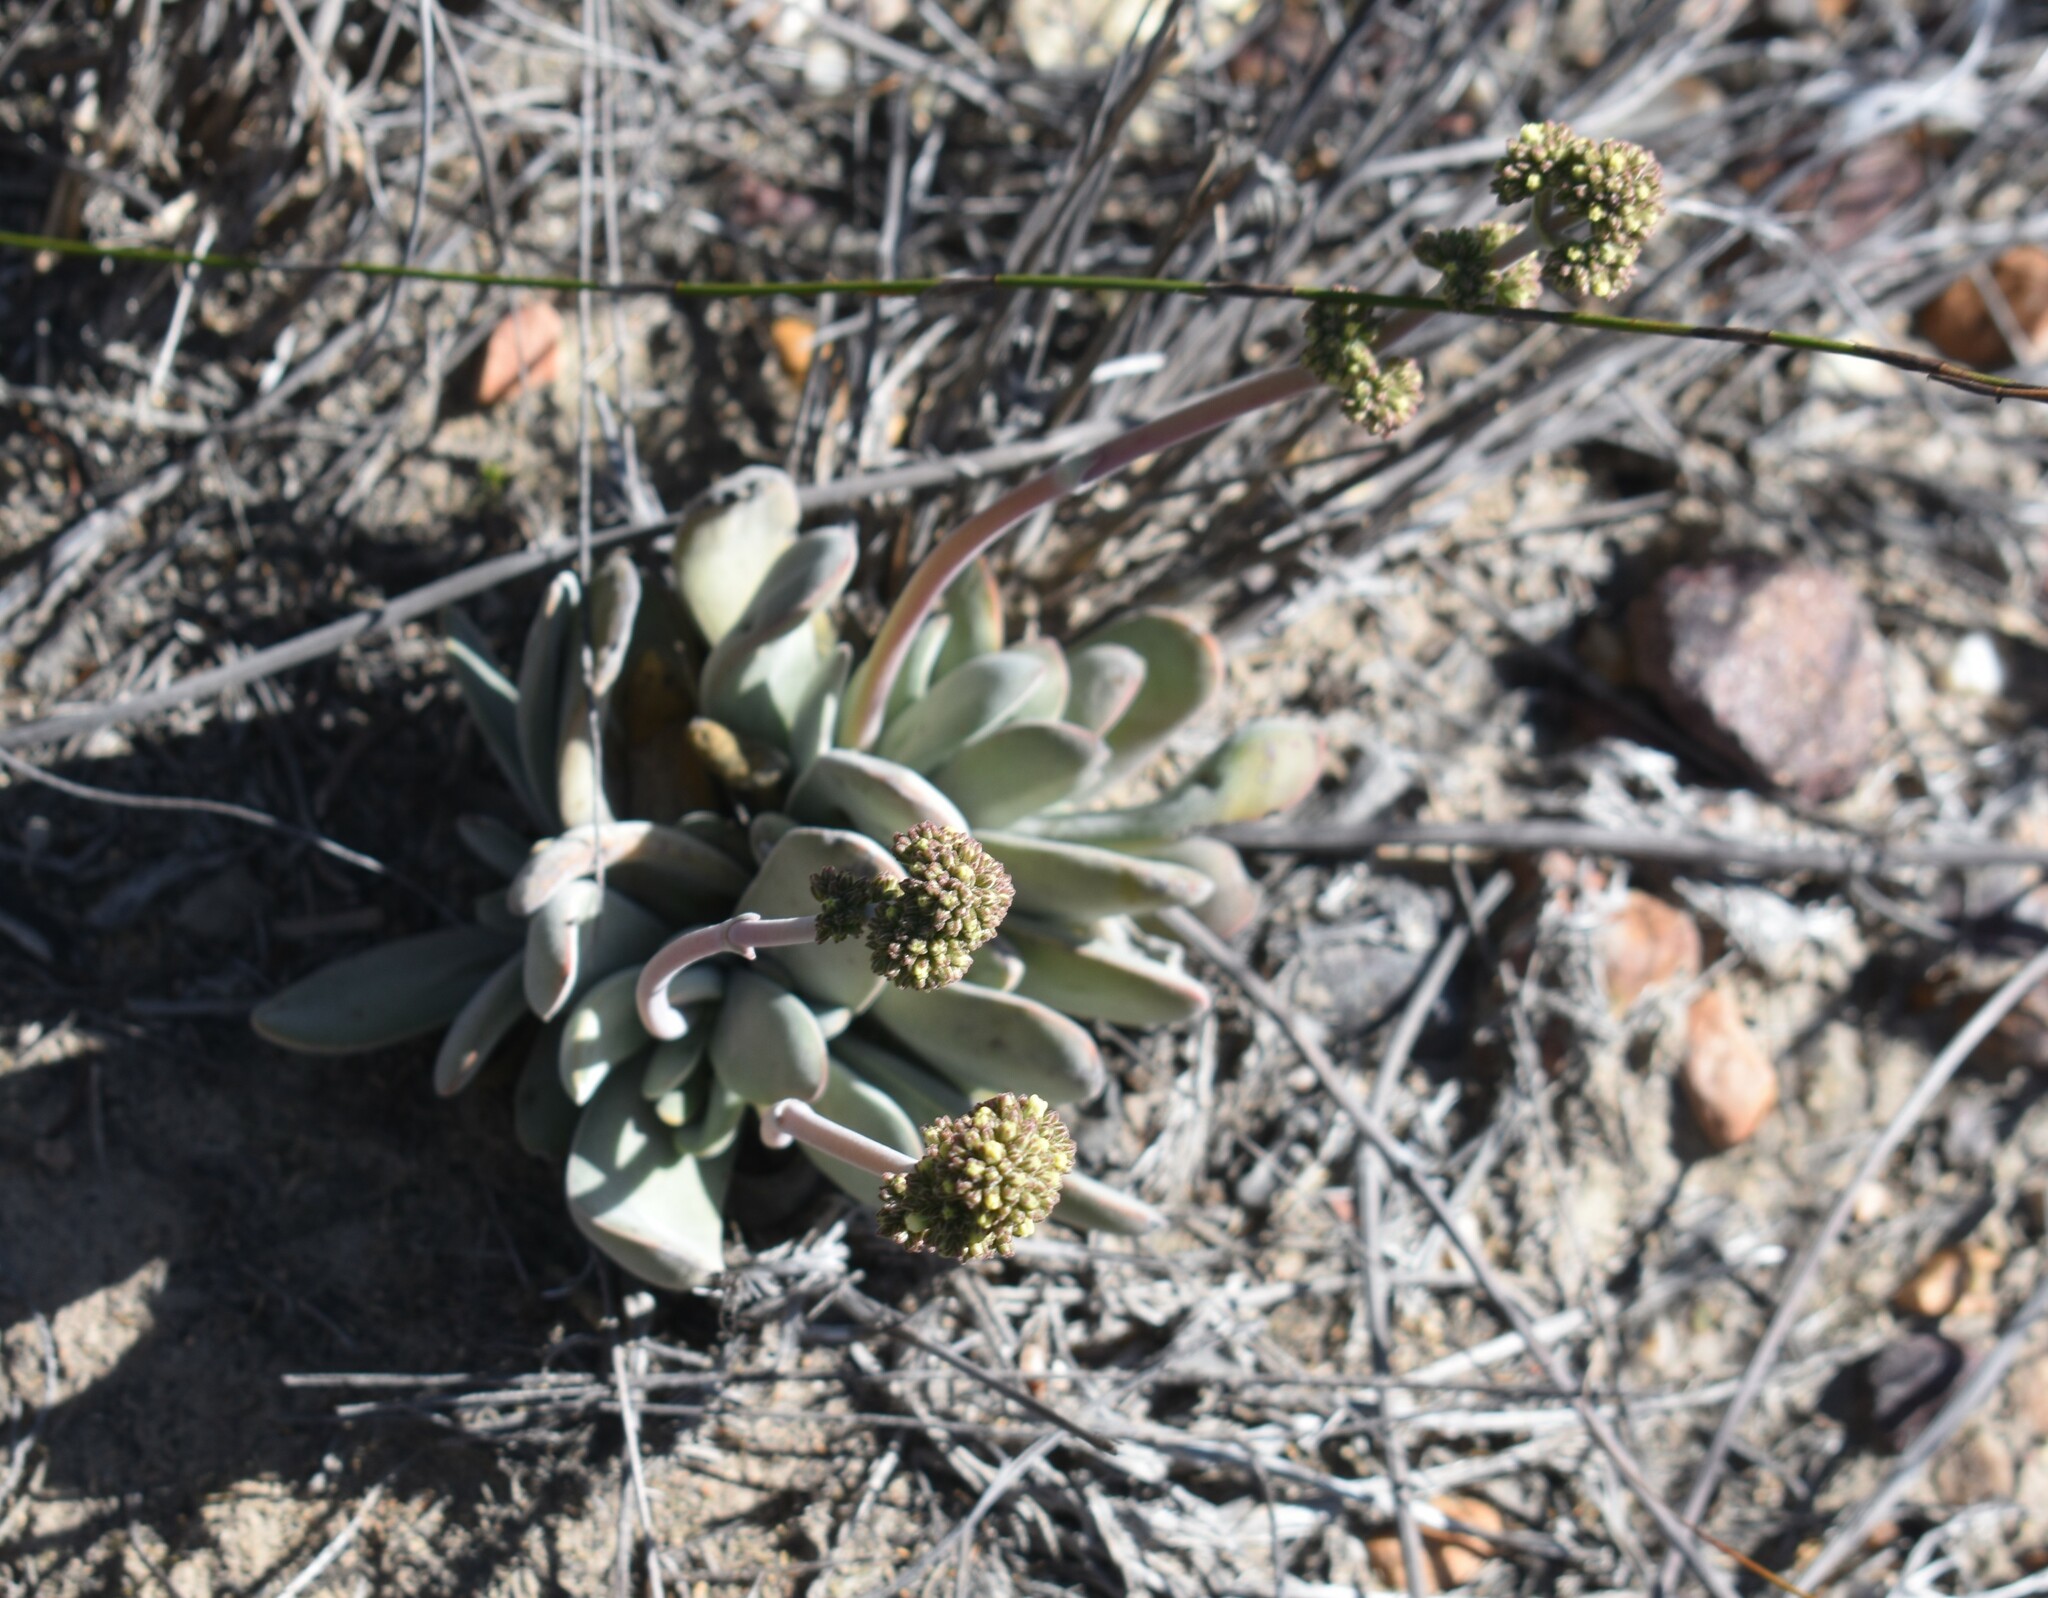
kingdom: Plantae
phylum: Tracheophyta
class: Magnoliopsida
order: Saxifragales
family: Crassulaceae
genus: Crassula
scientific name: Crassula cotyledonis
